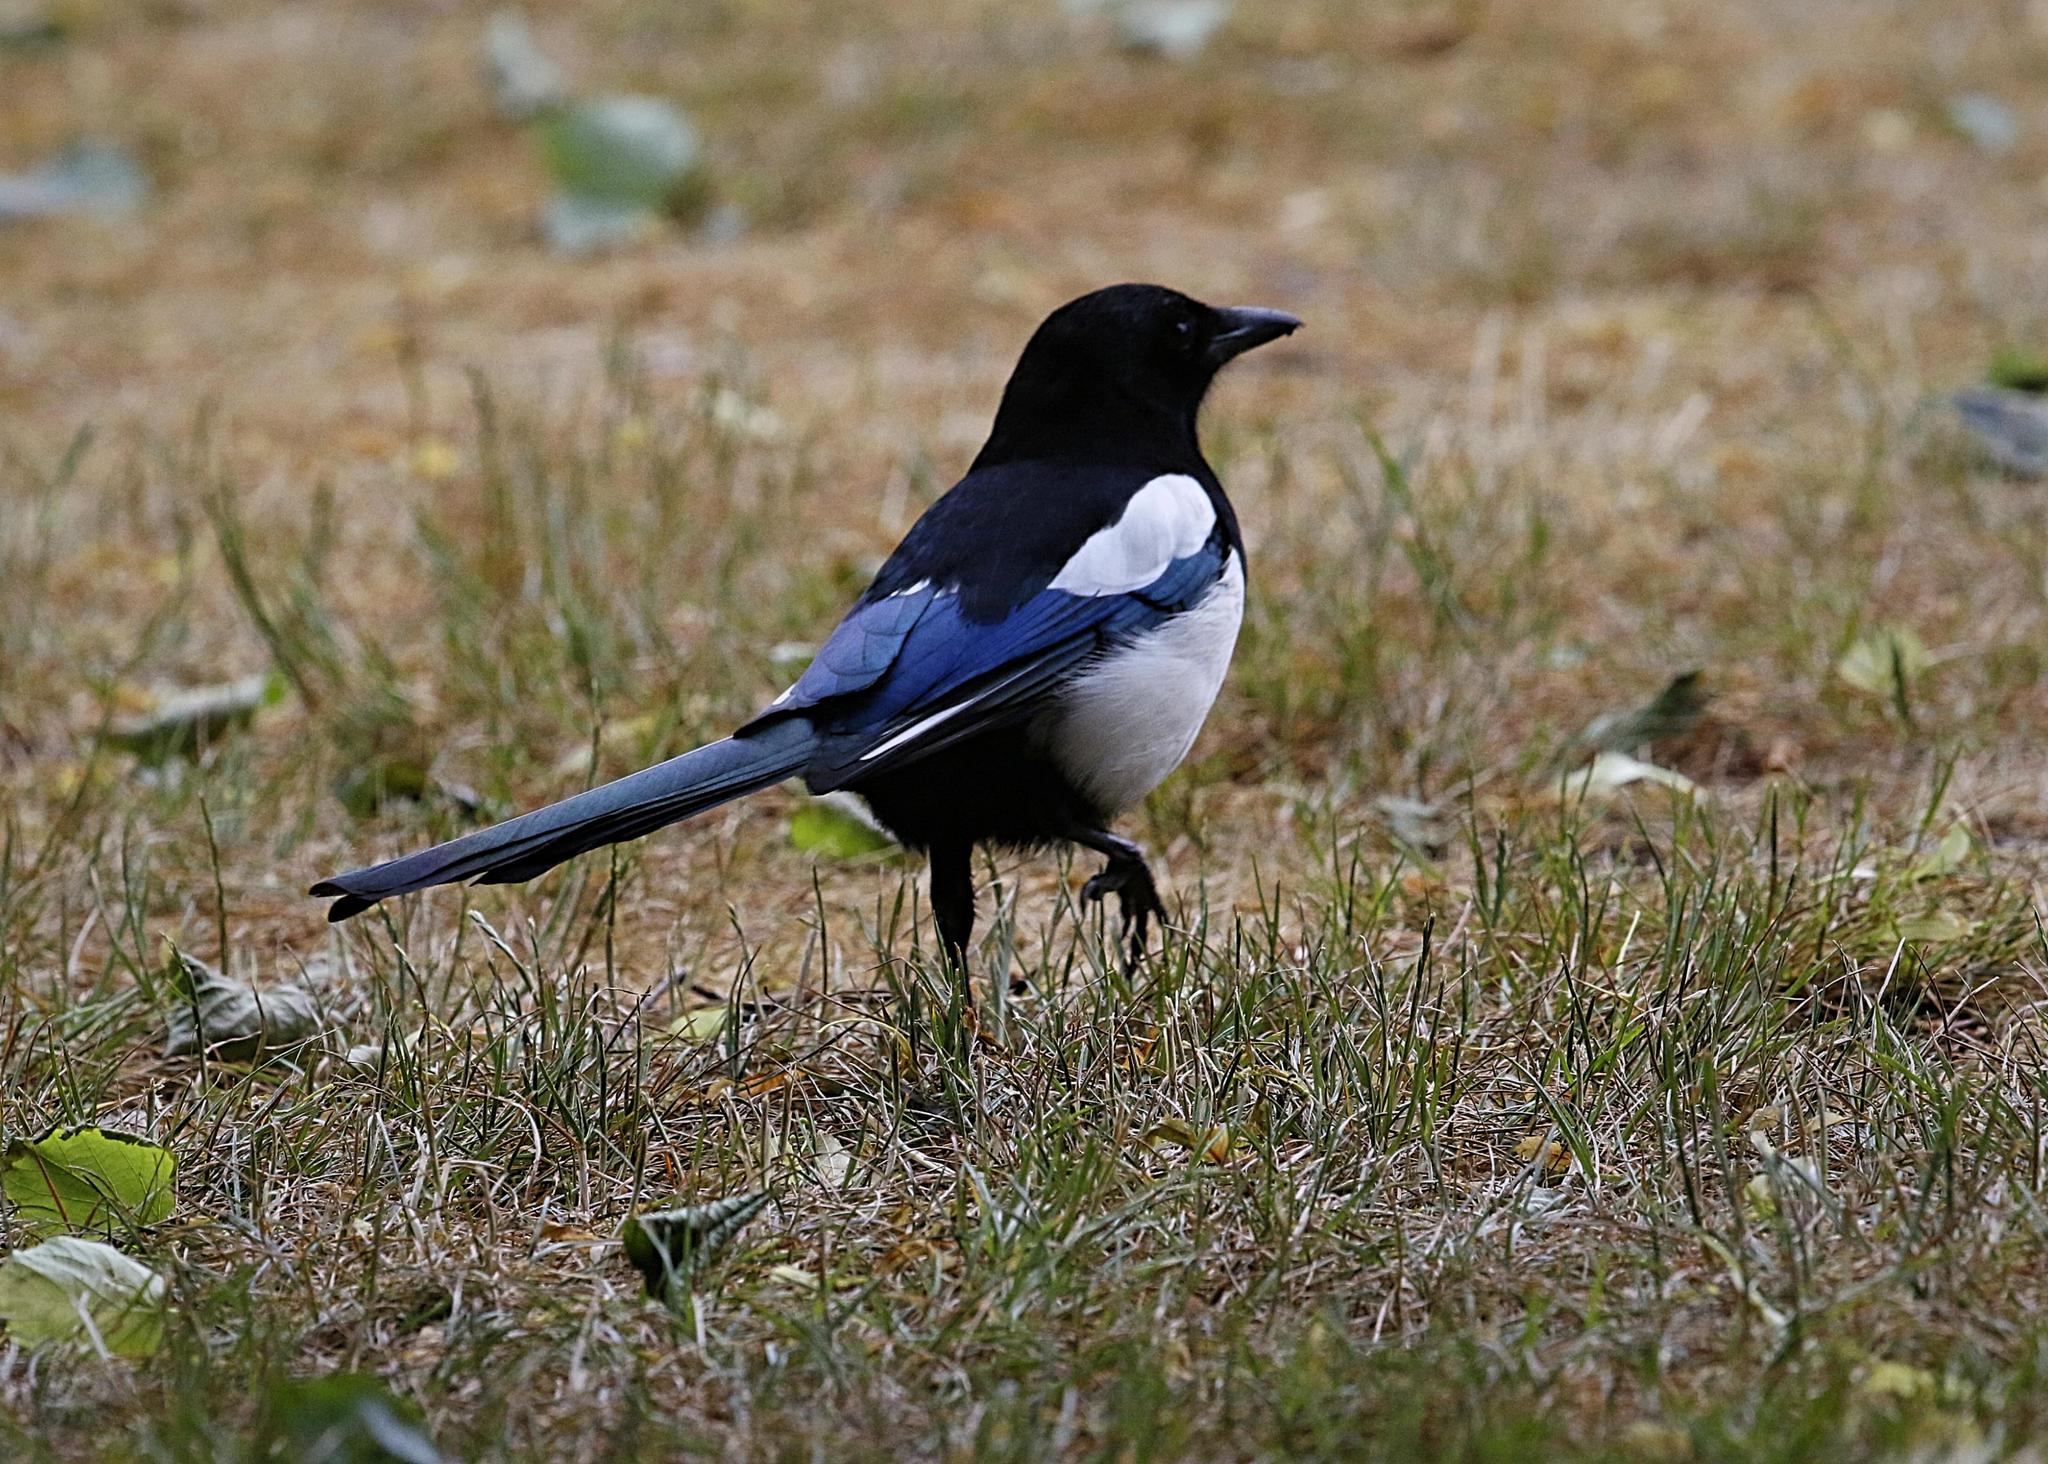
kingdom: Animalia
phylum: Chordata
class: Aves
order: Passeriformes
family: Corvidae
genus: Pica
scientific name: Pica pica
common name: Eurasian magpie
